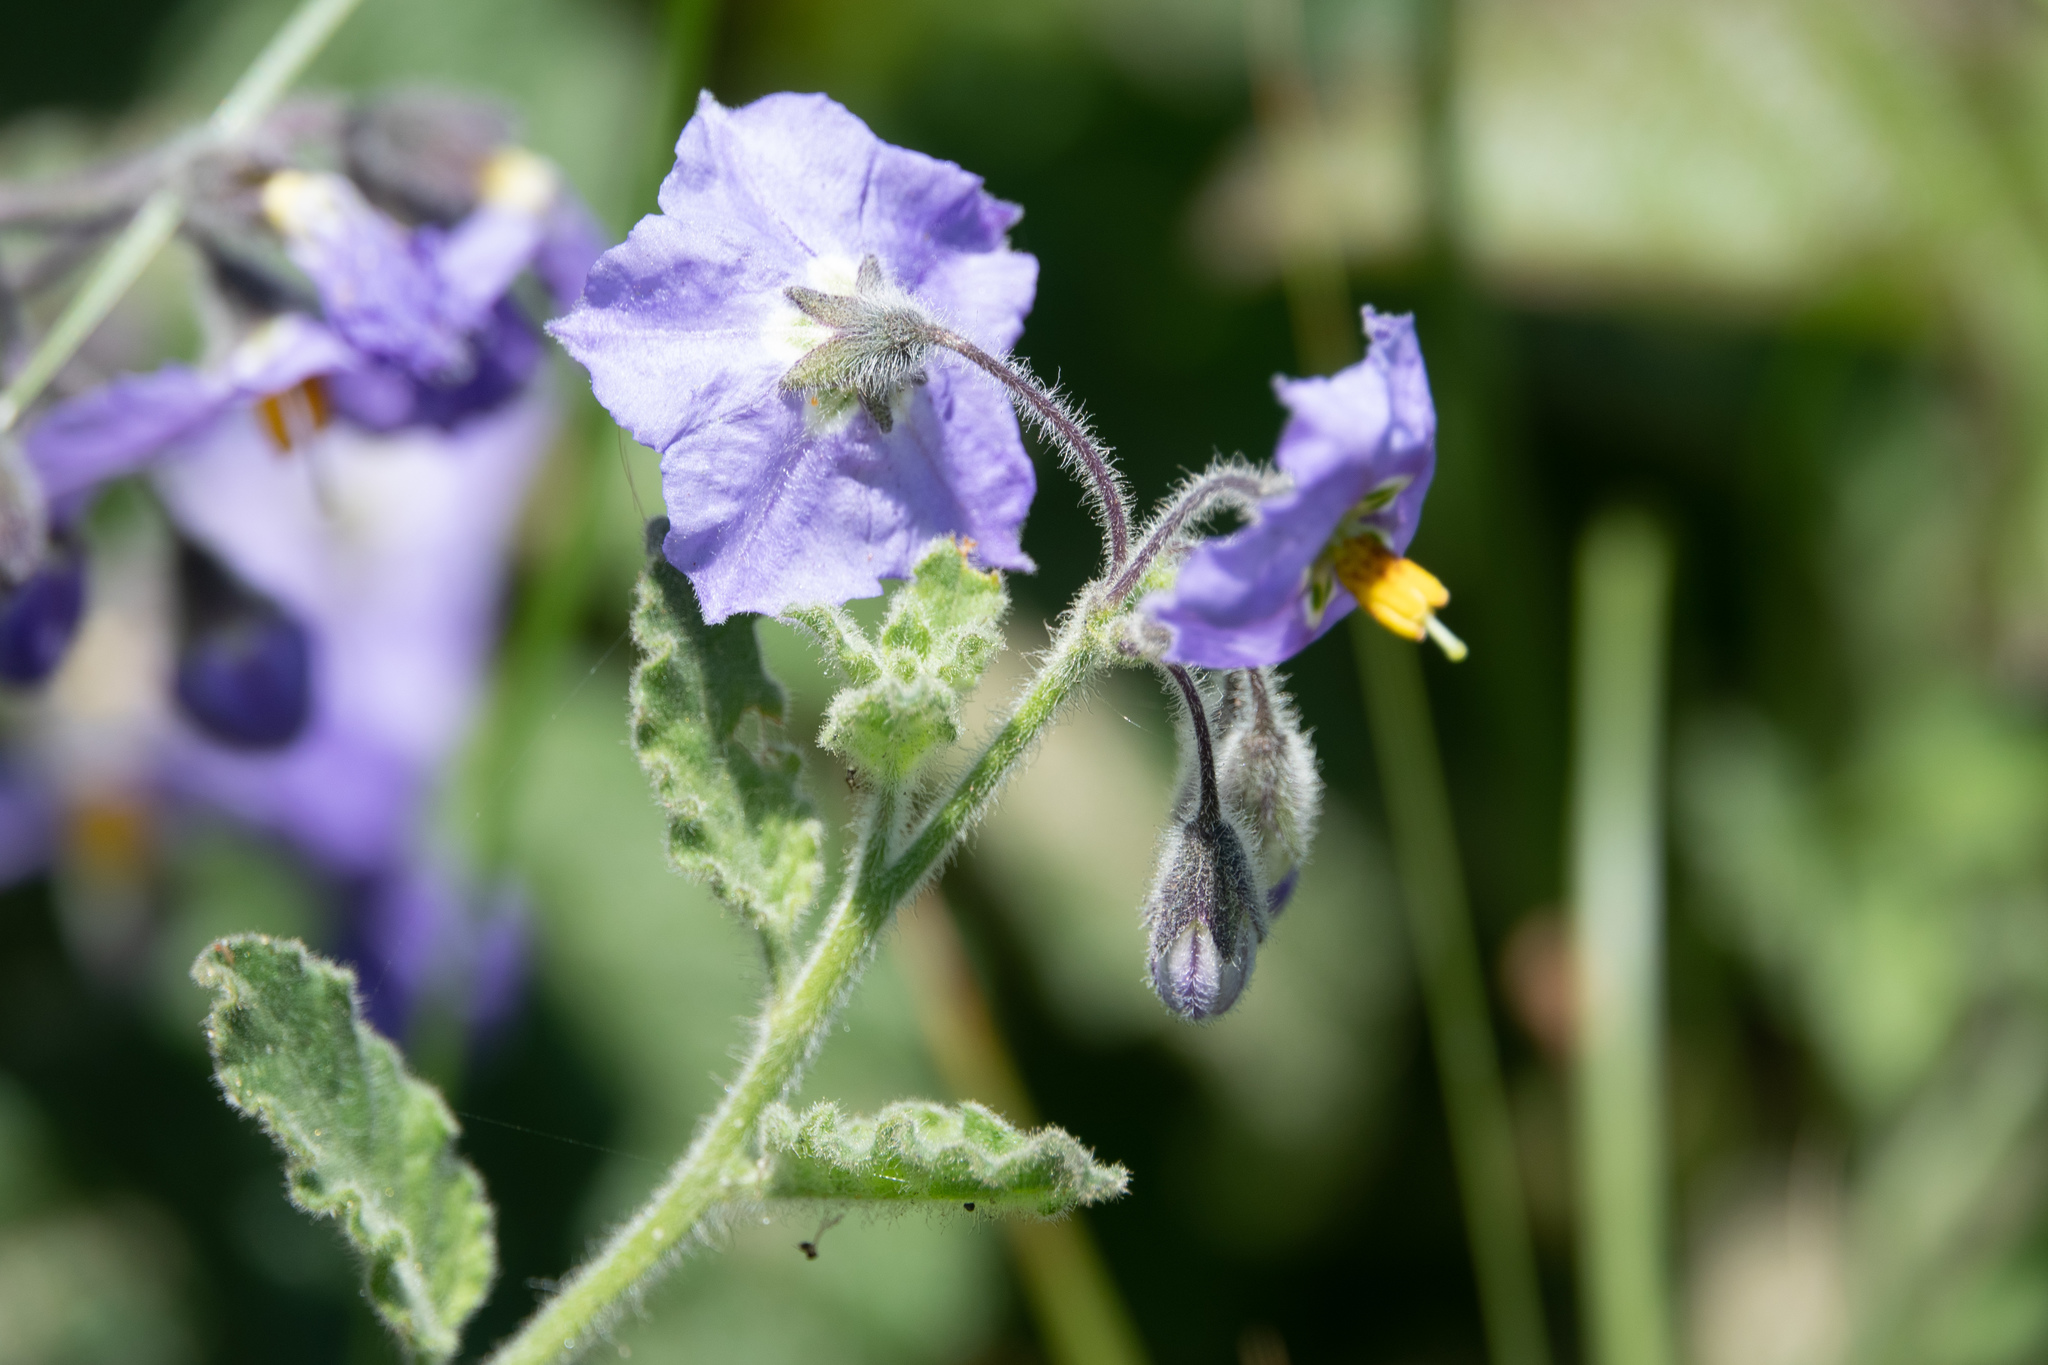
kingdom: Plantae
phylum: Tracheophyta
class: Magnoliopsida
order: Solanales
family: Solanaceae
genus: Solanum
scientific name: Solanum umbelliferum
